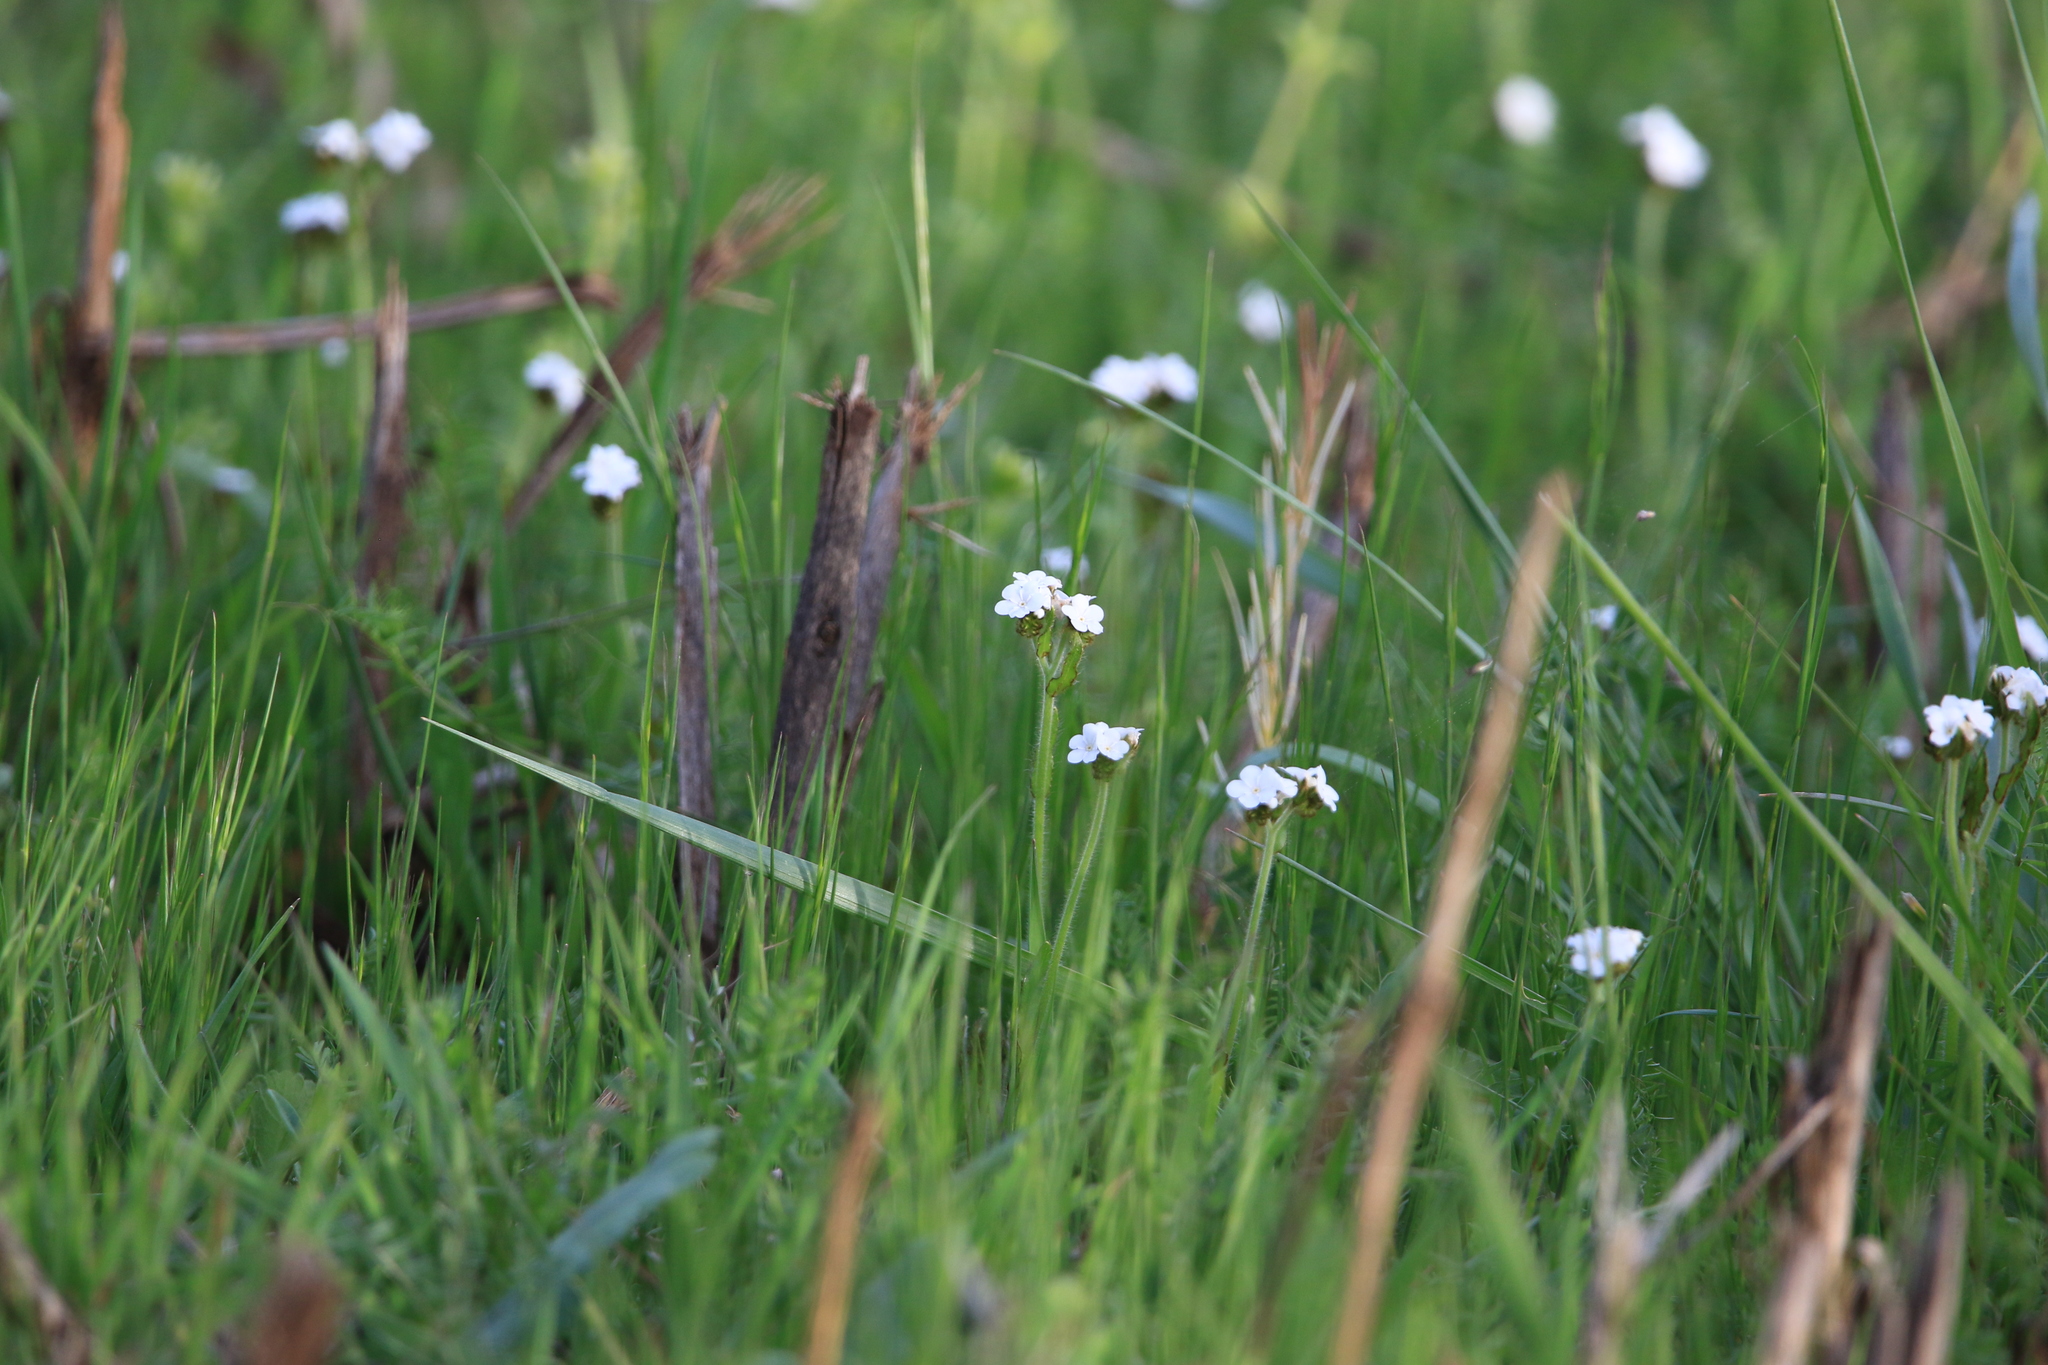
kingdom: Plantae
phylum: Tracheophyta
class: Magnoliopsida
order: Boraginales
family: Boraginaceae
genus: Plagiobothrys
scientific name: Plagiobothrys nothofulvus
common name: Popcorn-flower
